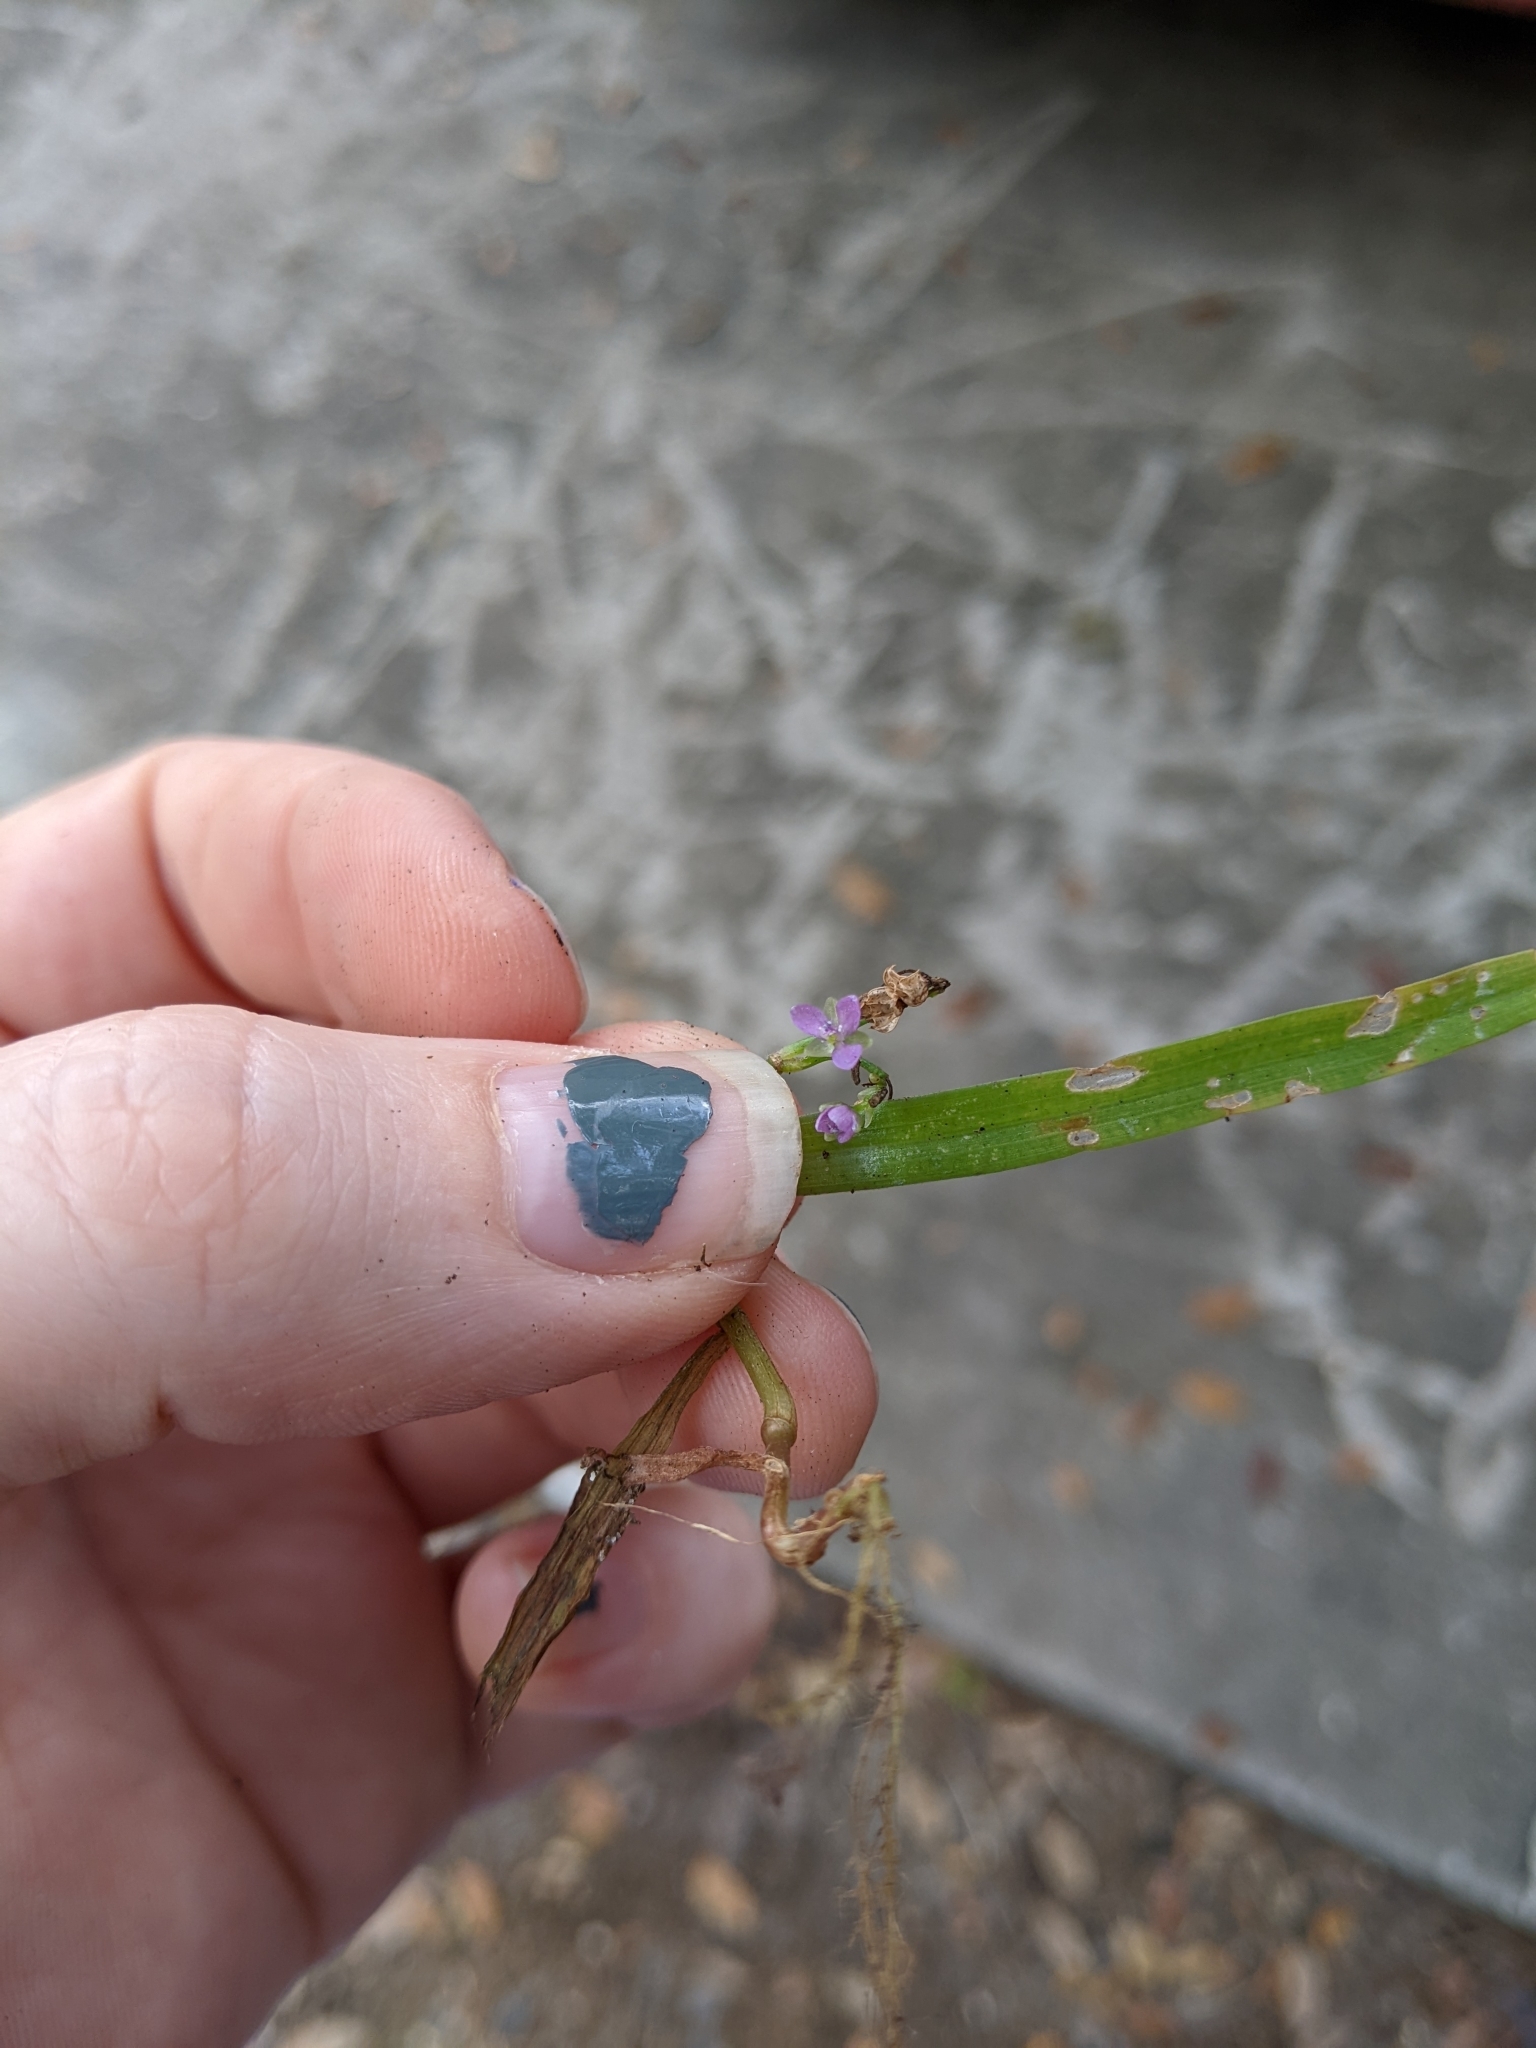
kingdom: Plantae
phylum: Tracheophyta
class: Liliopsida
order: Commelinales
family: Commelinaceae
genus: Murdannia
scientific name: Murdannia nudiflora
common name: Nakedstem dewflower
